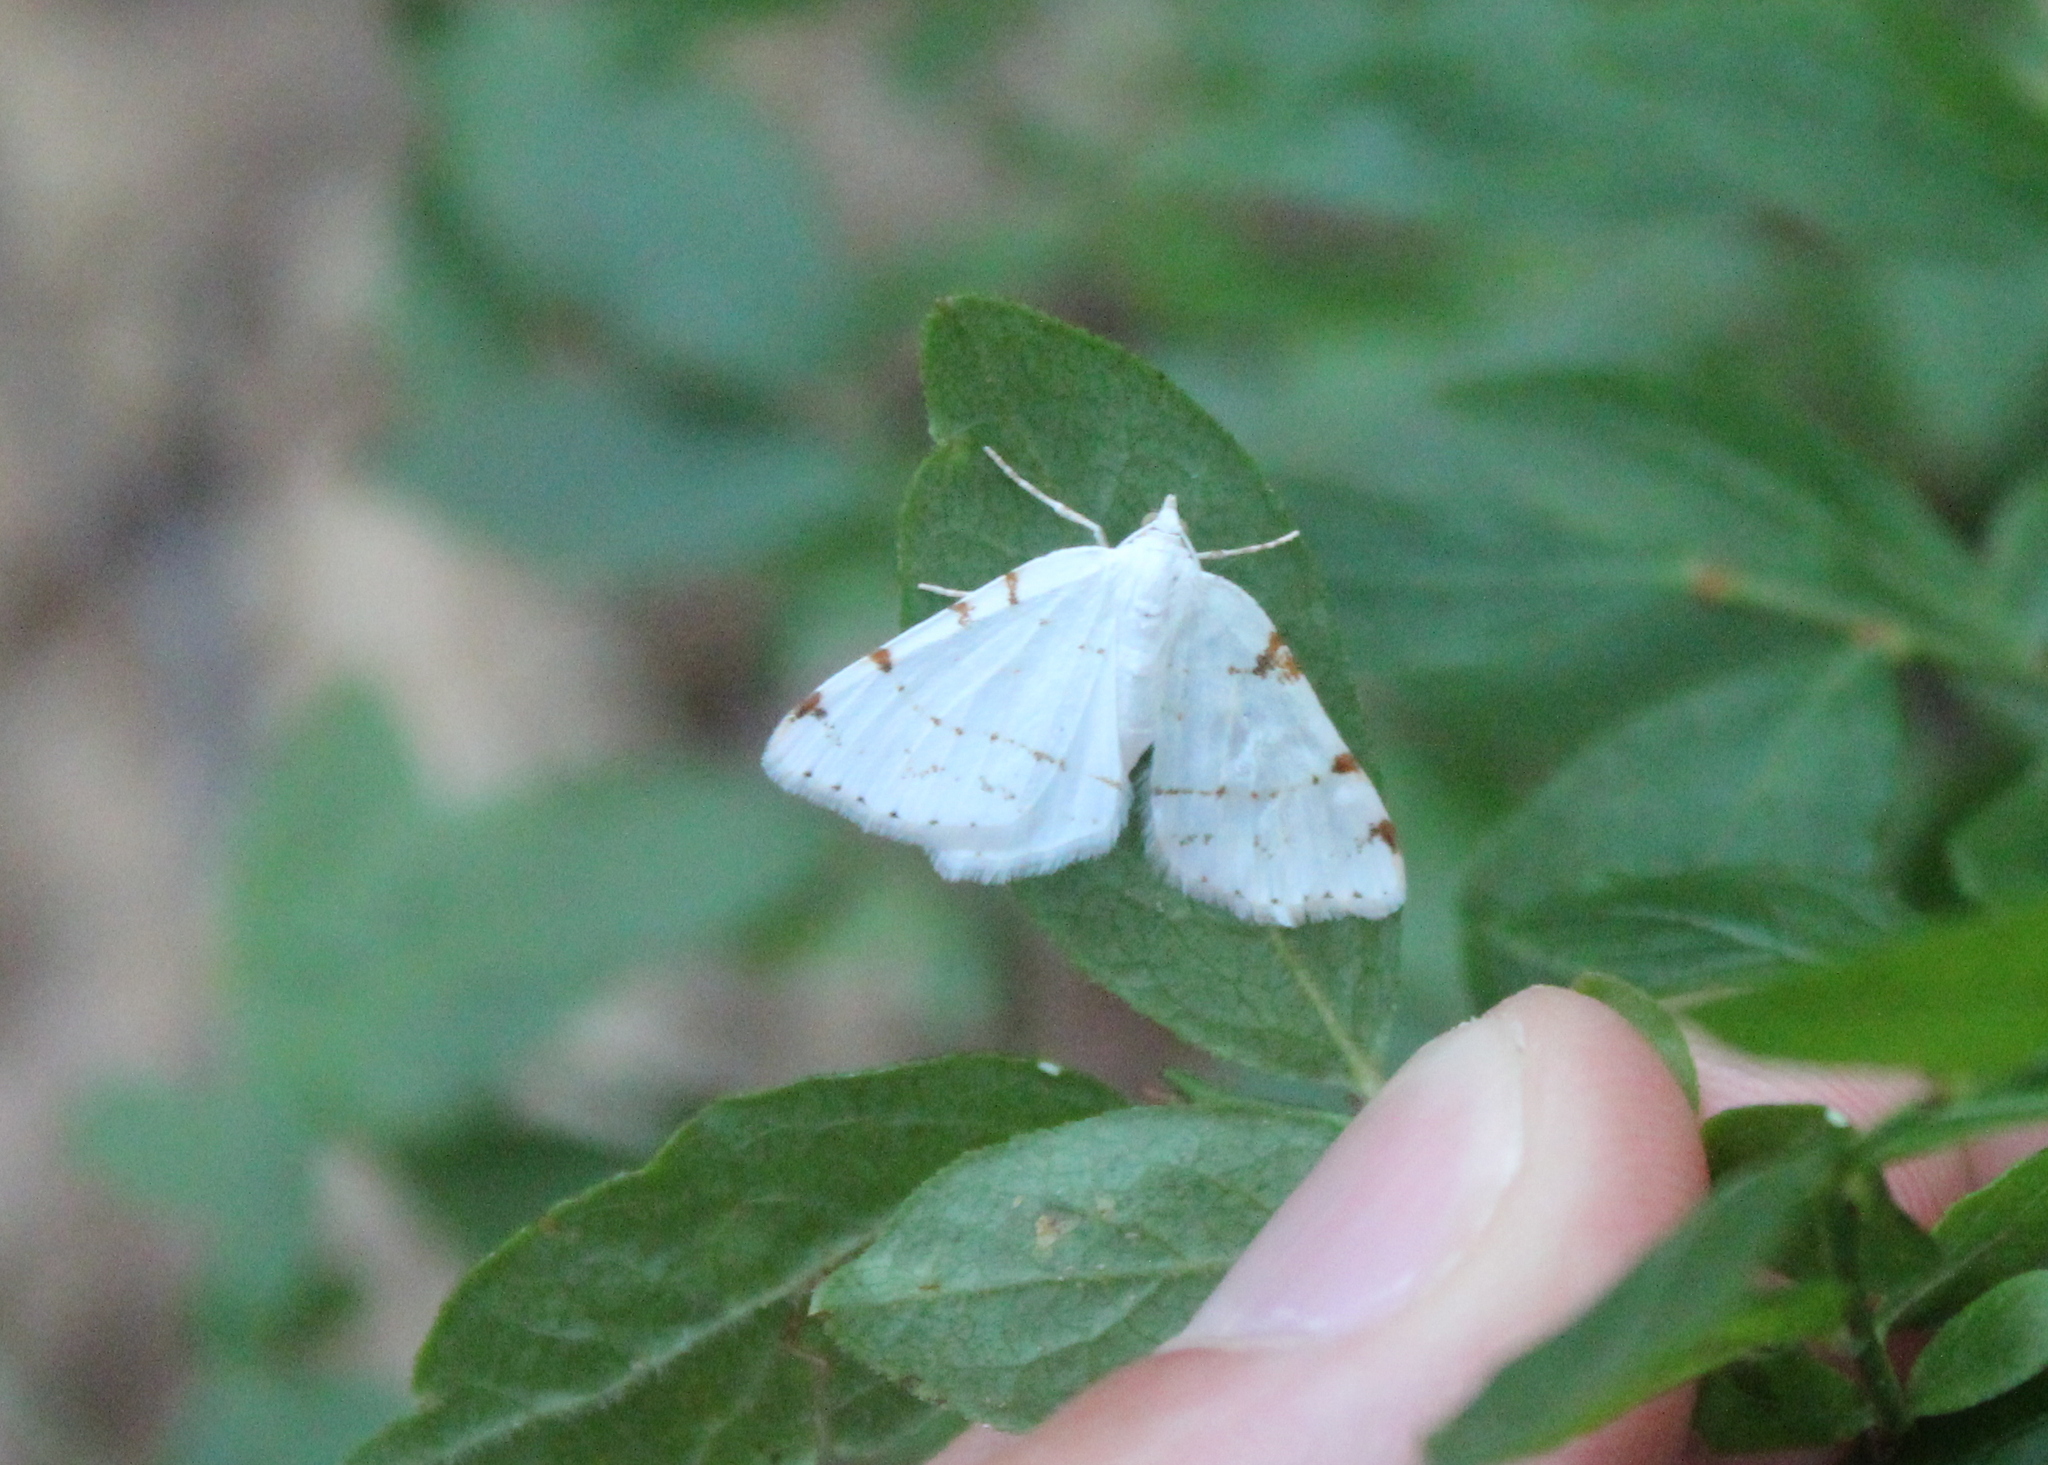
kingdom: Animalia
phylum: Arthropoda
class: Insecta
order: Lepidoptera
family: Geometridae
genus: Macaria
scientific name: Macaria pustularia
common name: Lesser maple spanworm moth
